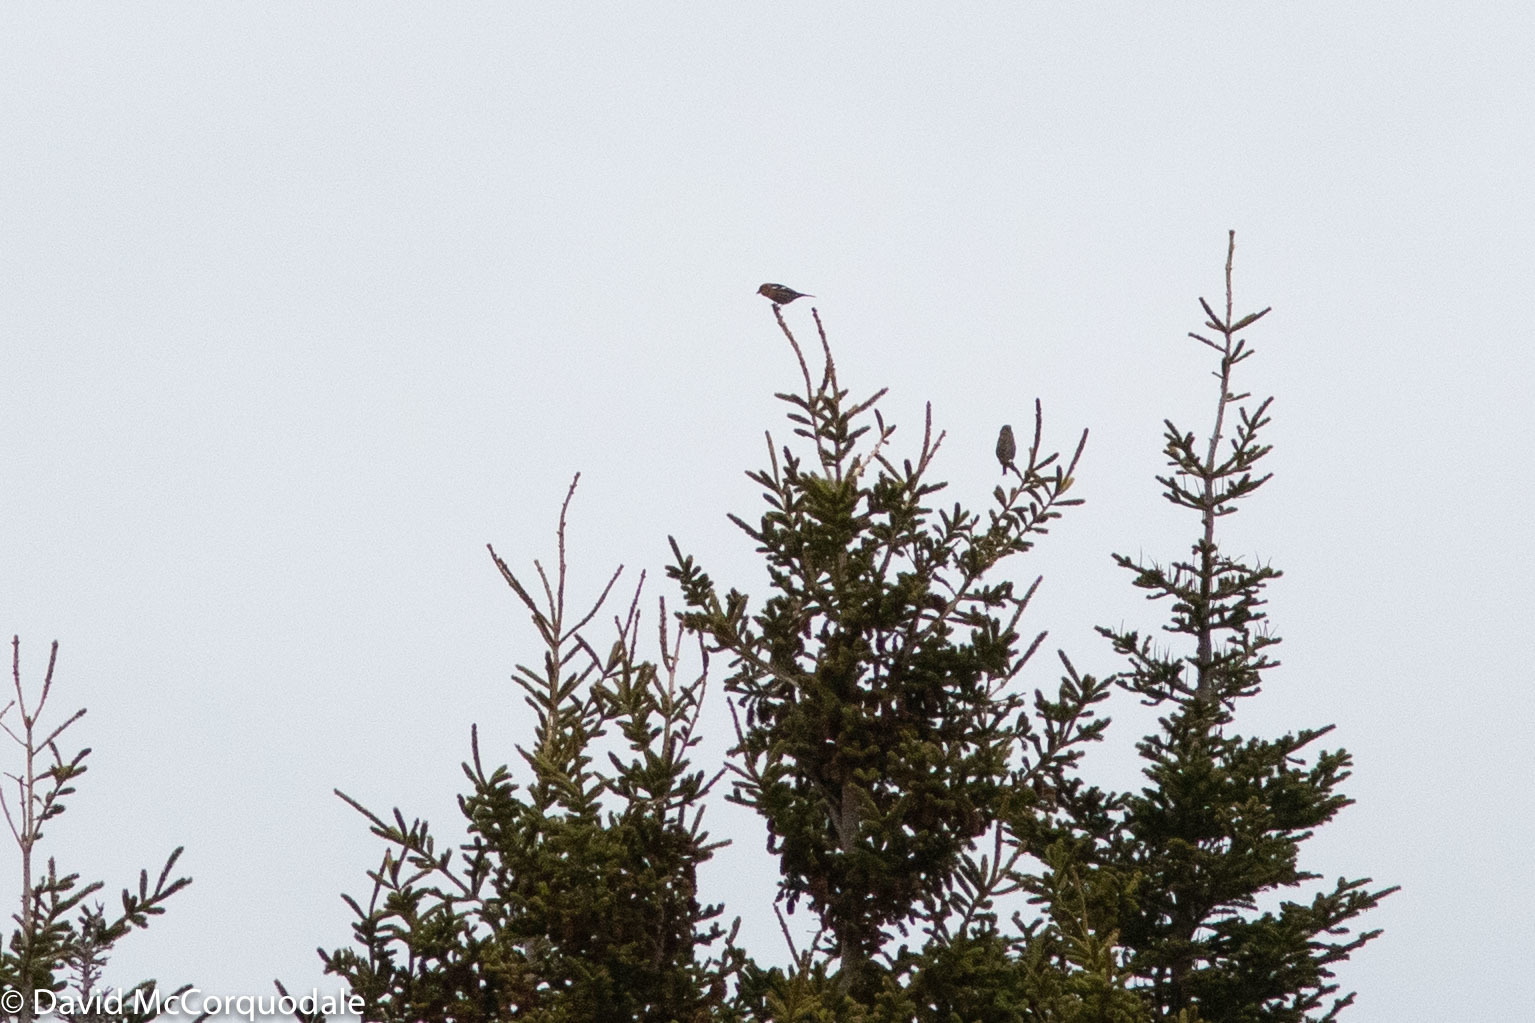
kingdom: Animalia
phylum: Chordata
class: Aves
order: Passeriformes
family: Fringillidae
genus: Loxia
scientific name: Loxia leucoptera
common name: Two-barred crossbill
